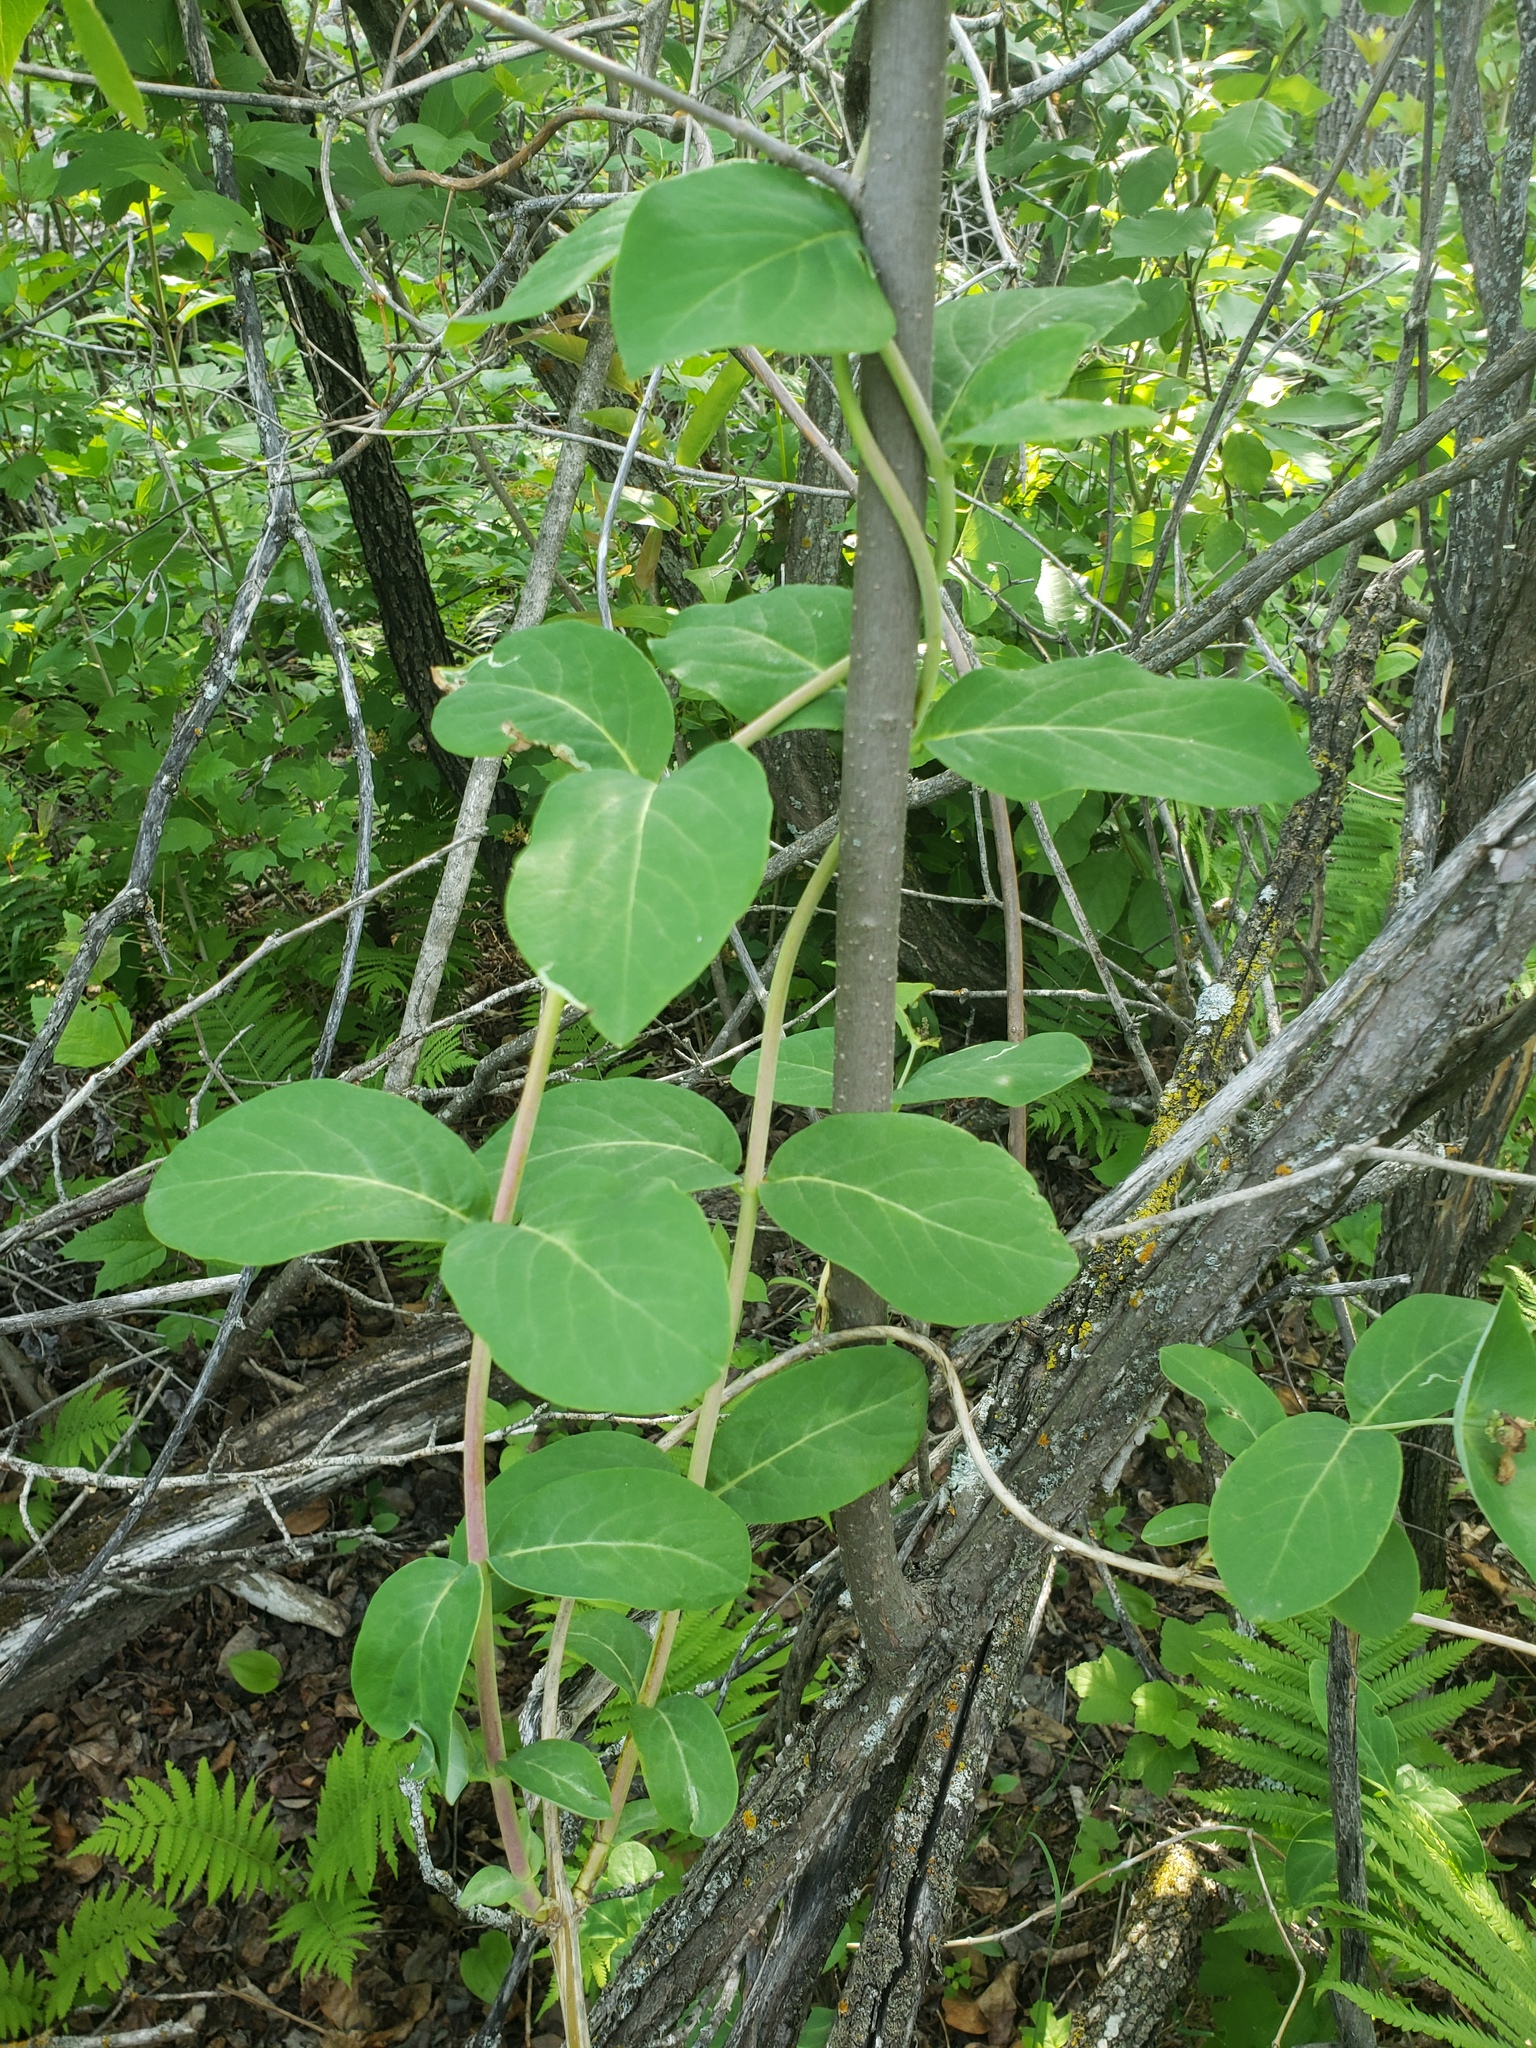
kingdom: Plantae
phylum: Tracheophyta
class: Magnoliopsida
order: Dipsacales
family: Caprifoliaceae
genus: Lonicera
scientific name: Lonicera dioica
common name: Limber honeysuckle
